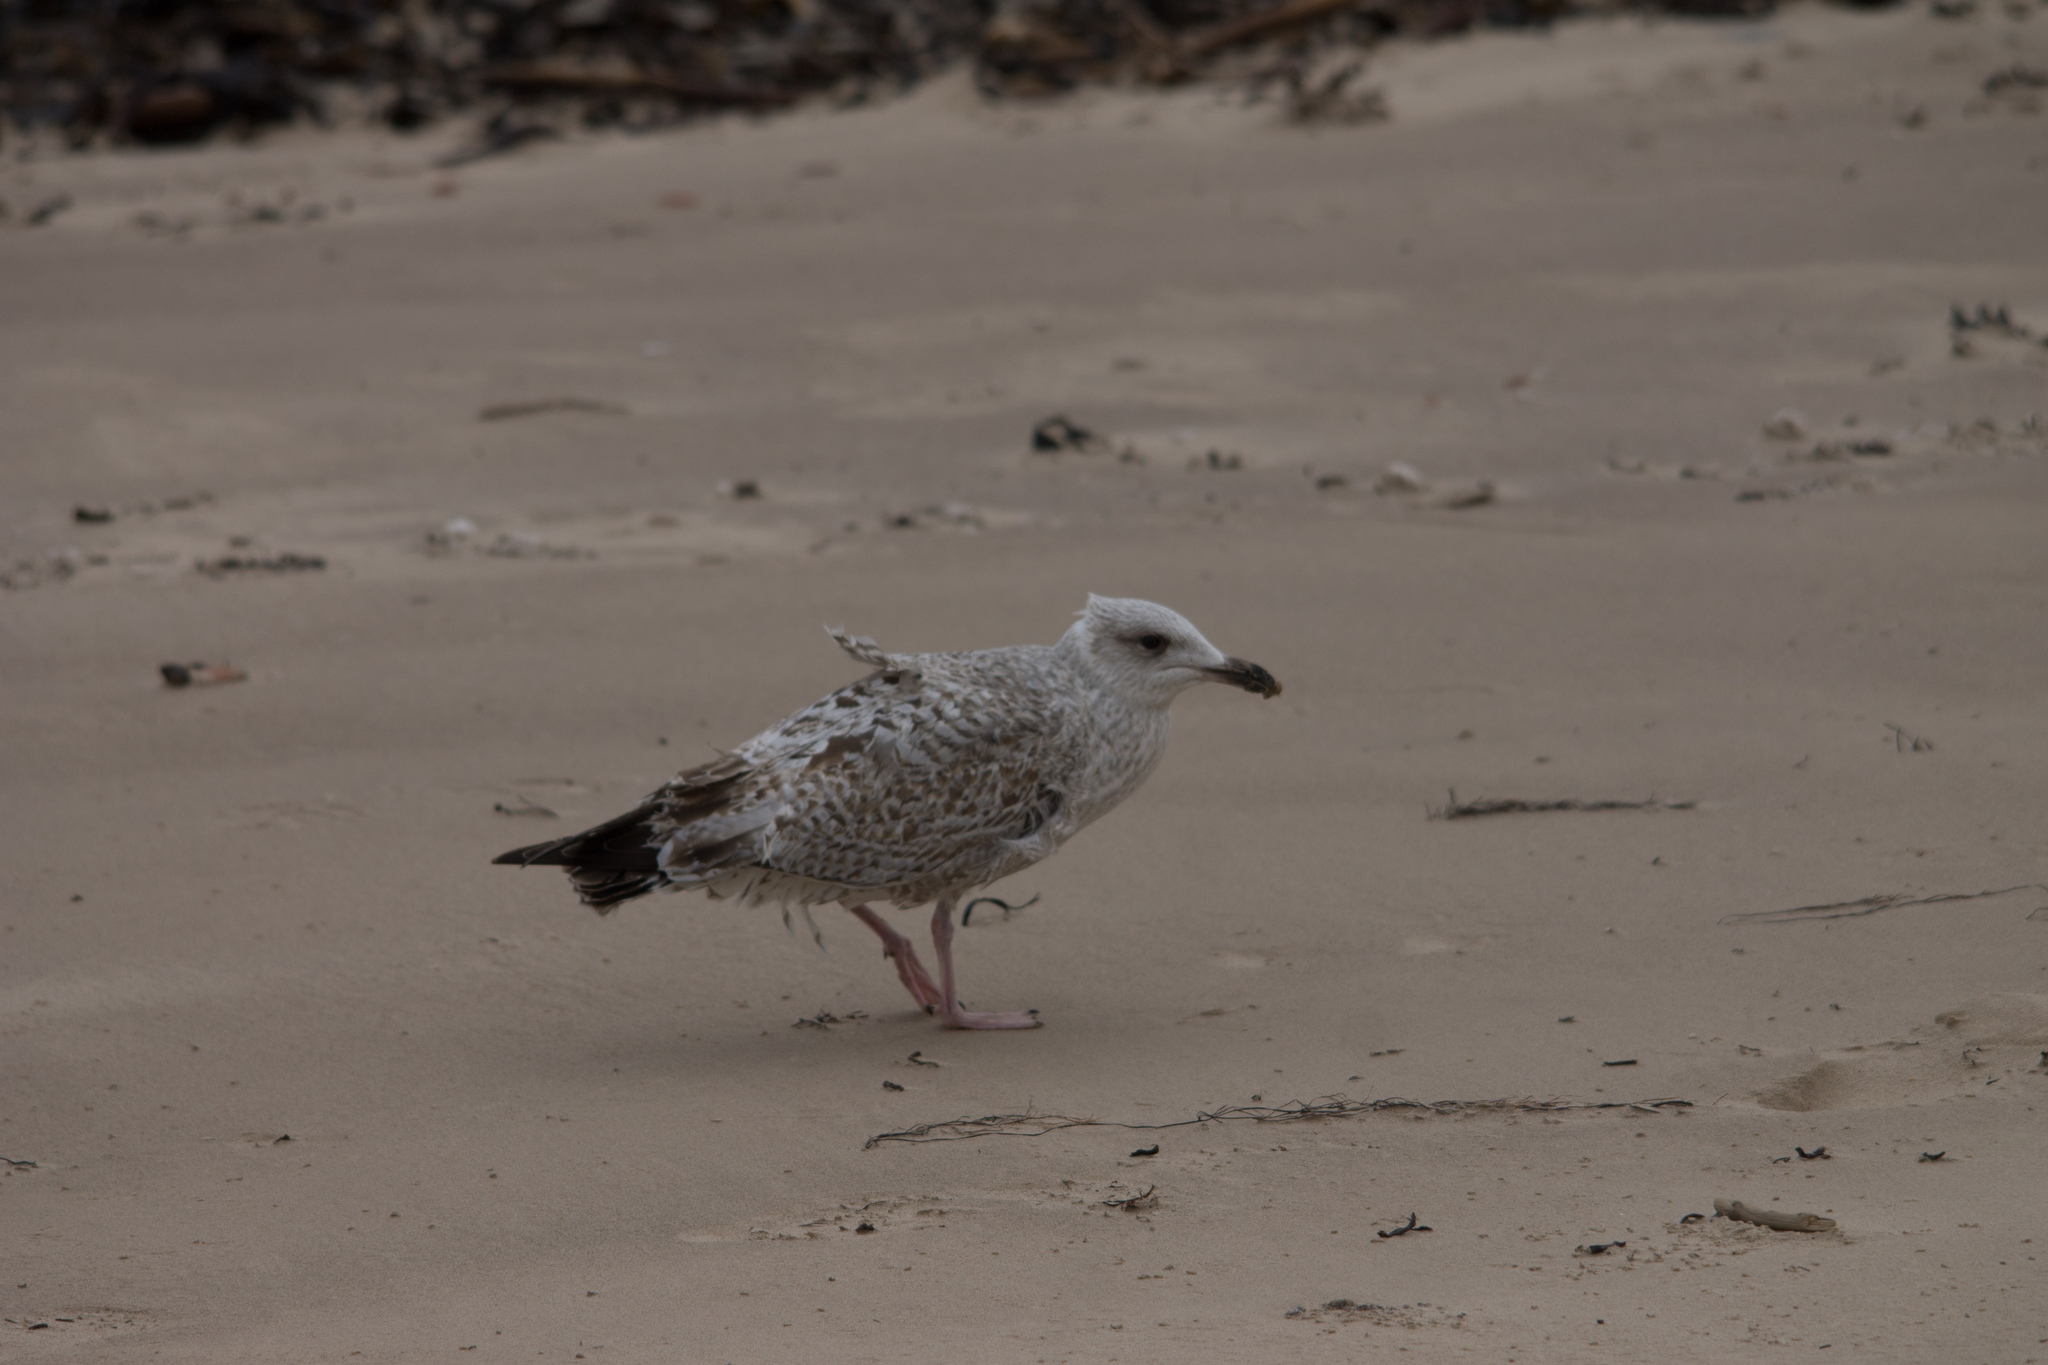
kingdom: Animalia
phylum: Chordata
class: Aves
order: Charadriiformes
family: Laridae
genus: Larus
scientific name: Larus argentatus
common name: Herring gull
